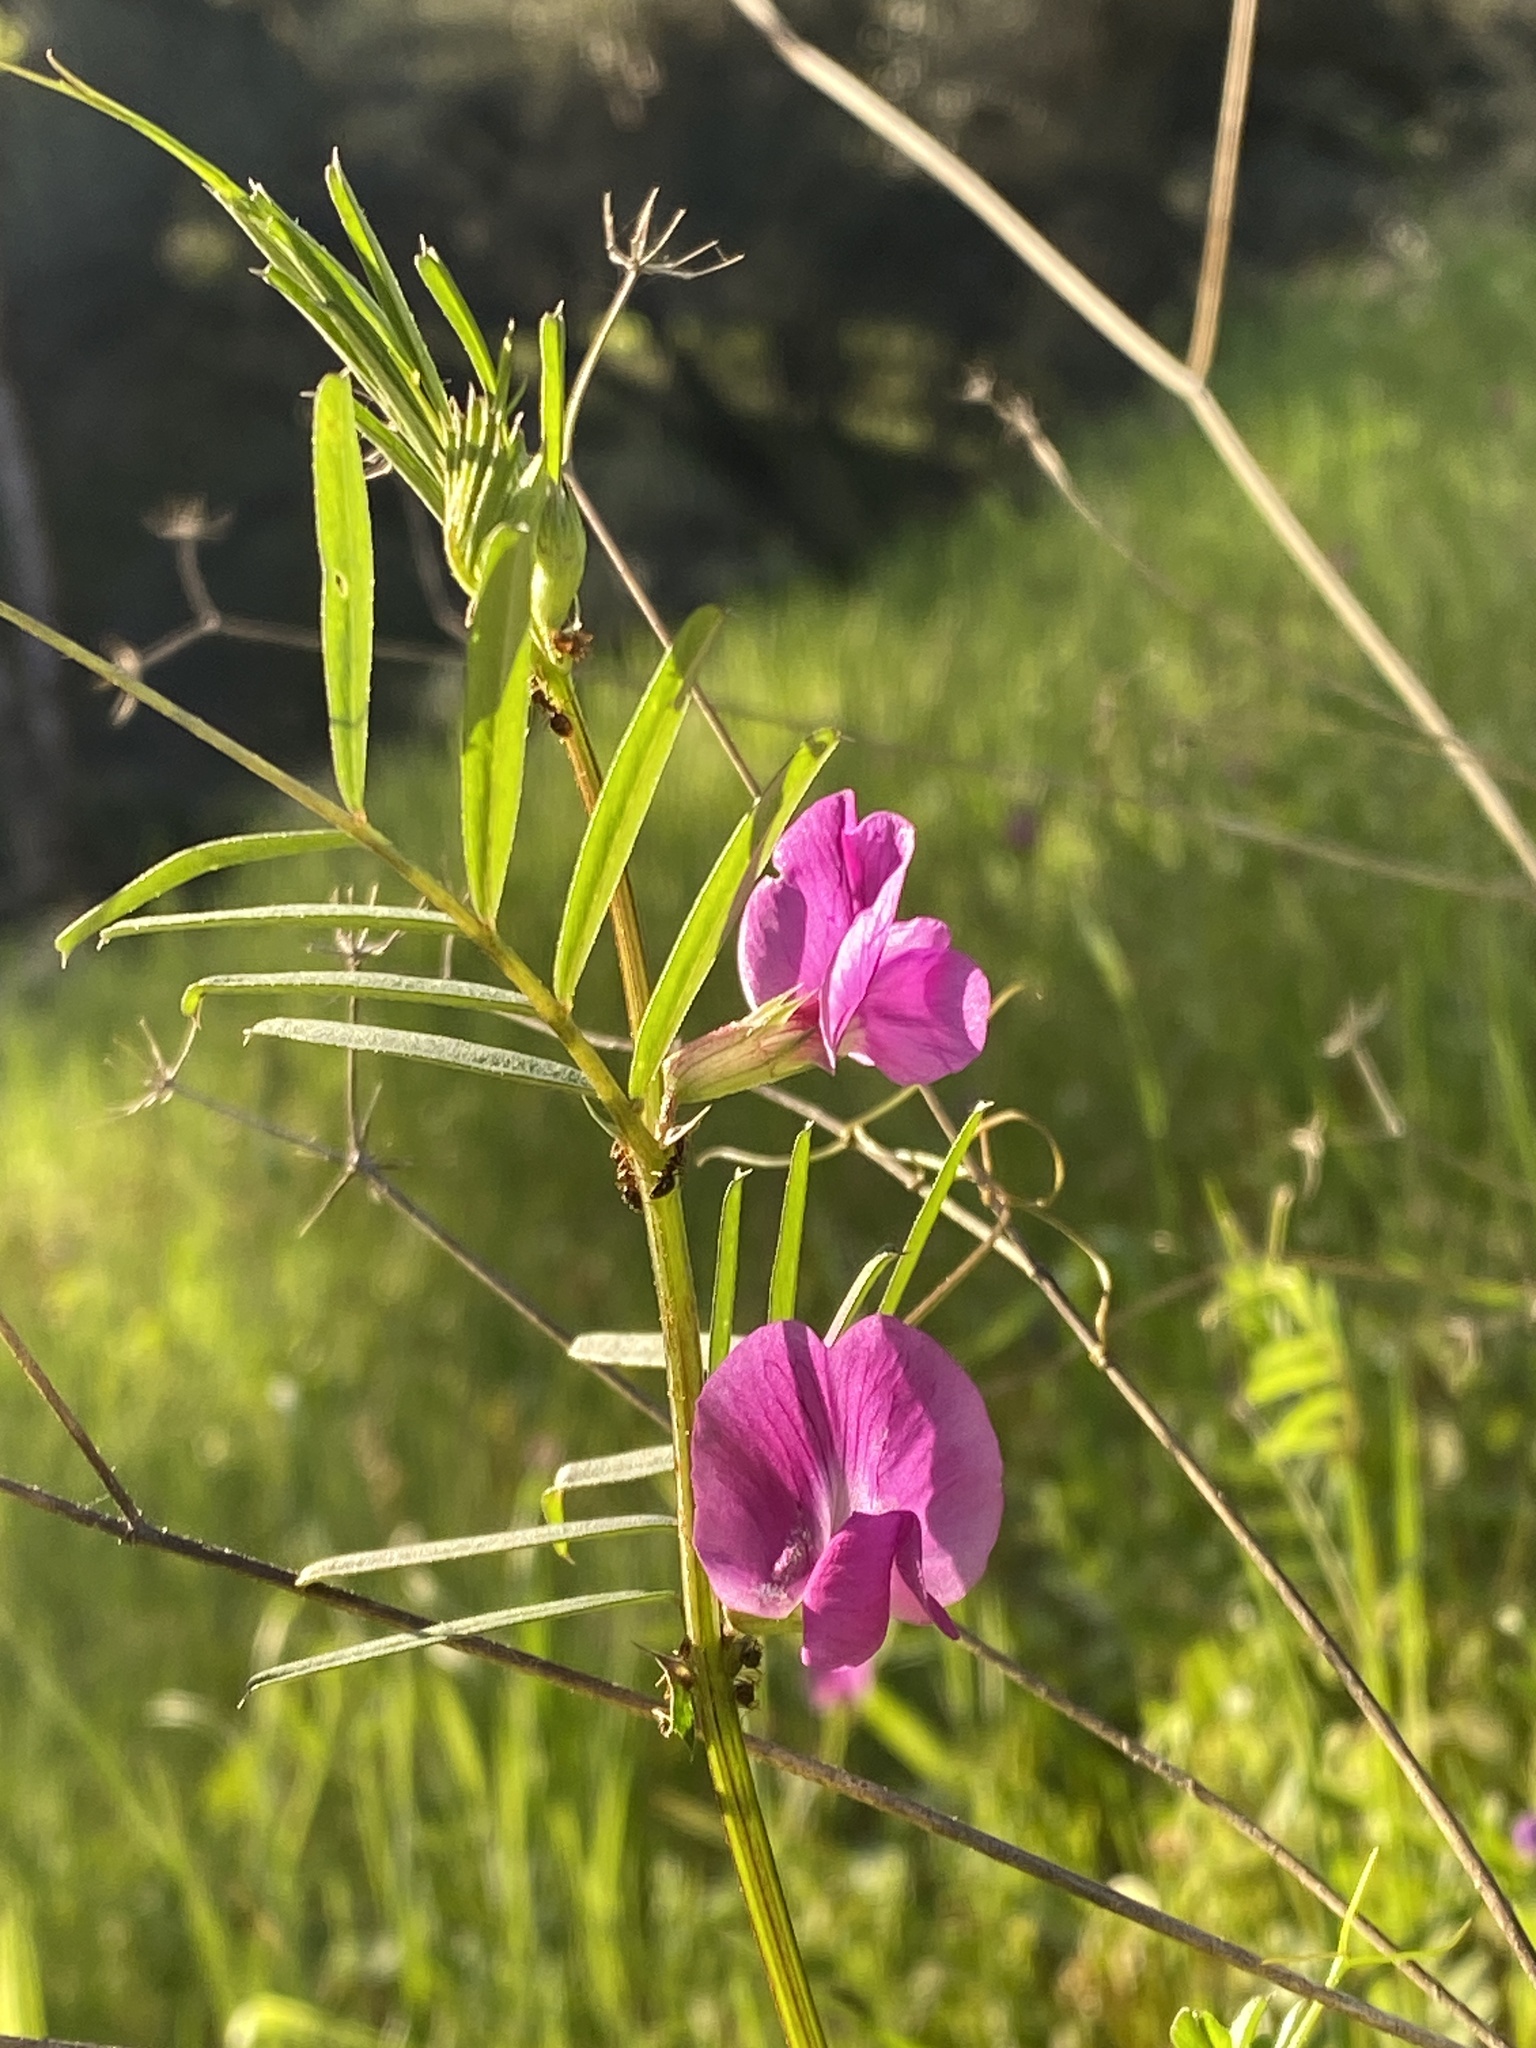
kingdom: Plantae
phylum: Tracheophyta
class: Magnoliopsida
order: Fabales
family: Fabaceae
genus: Vicia
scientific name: Vicia sativa
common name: Garden vetch
